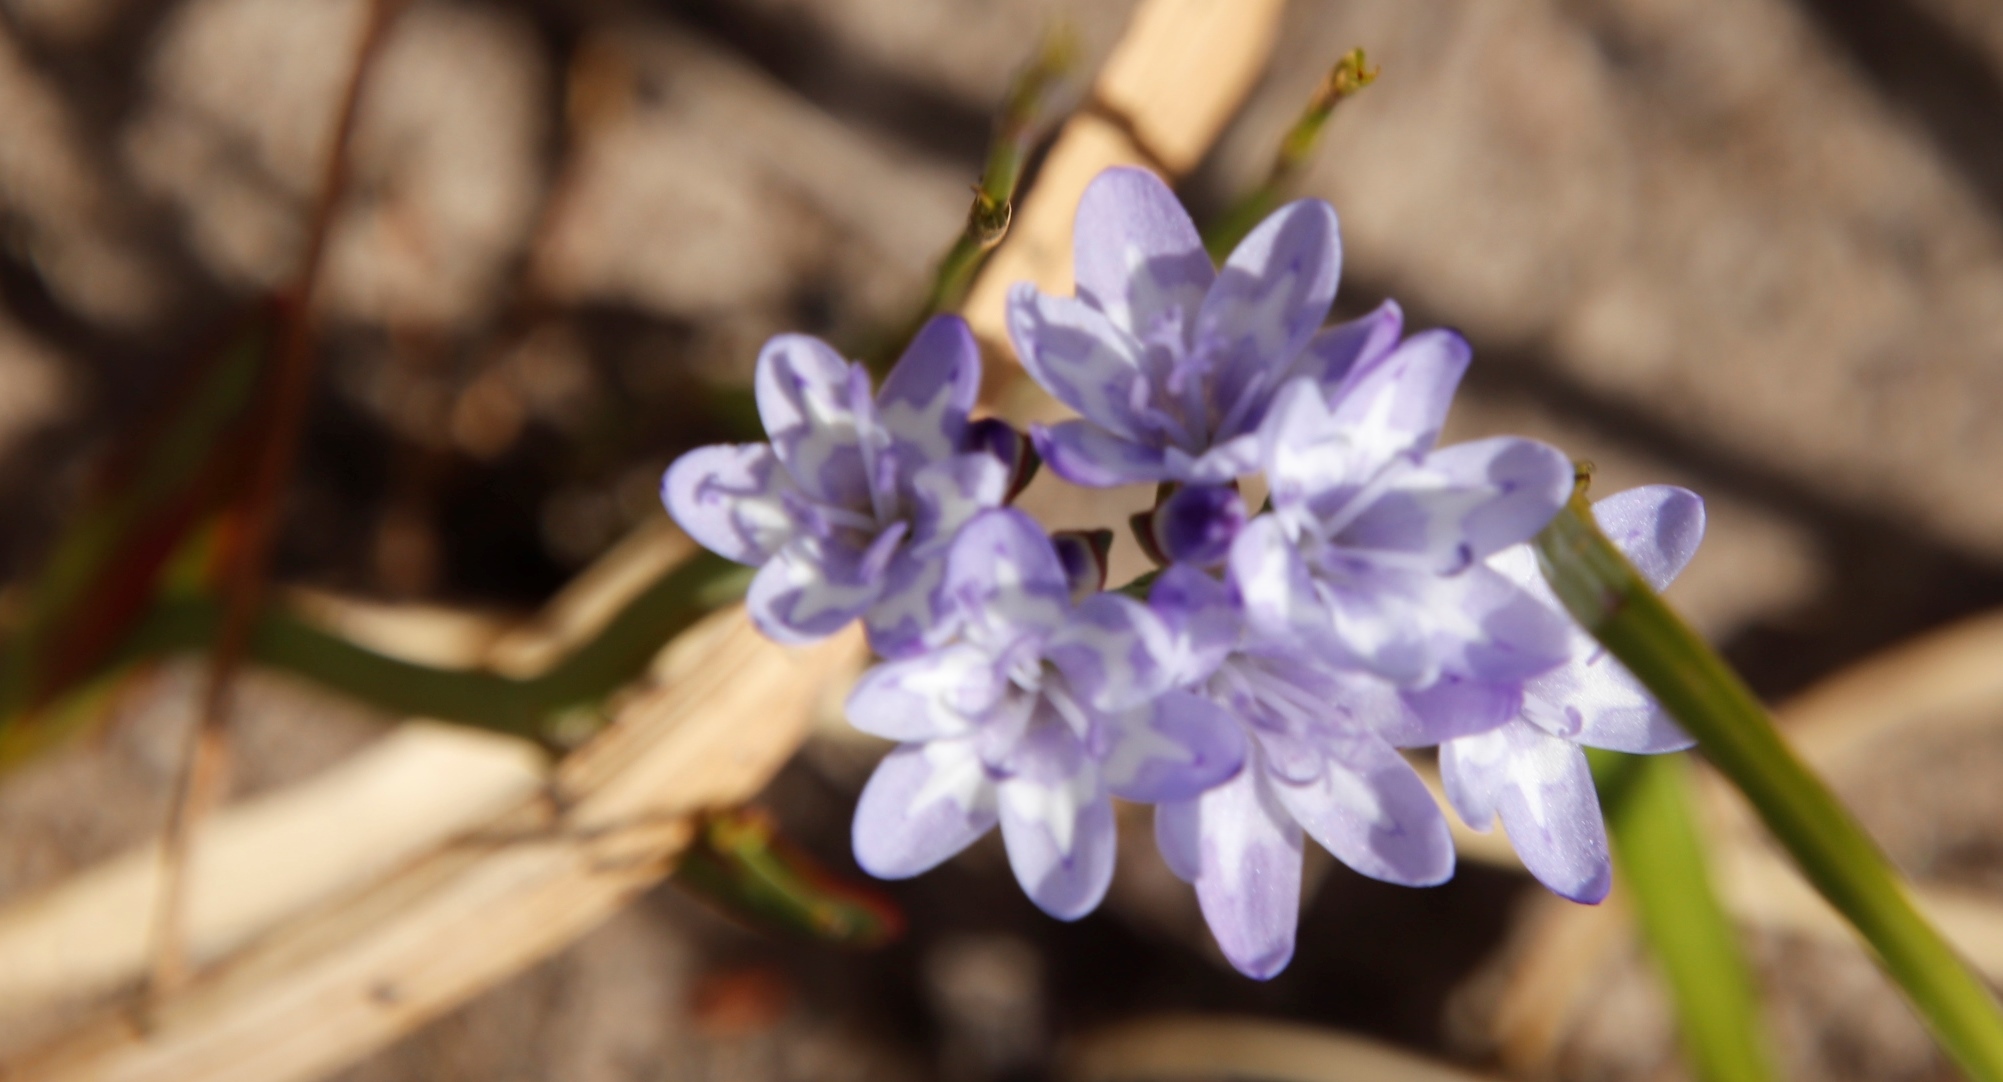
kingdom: Plantae
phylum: Tracheophyta
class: Liliopsida
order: Asparagales
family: Iridaceae
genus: Codonorhiza
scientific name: Codonorhiza corymbosa
